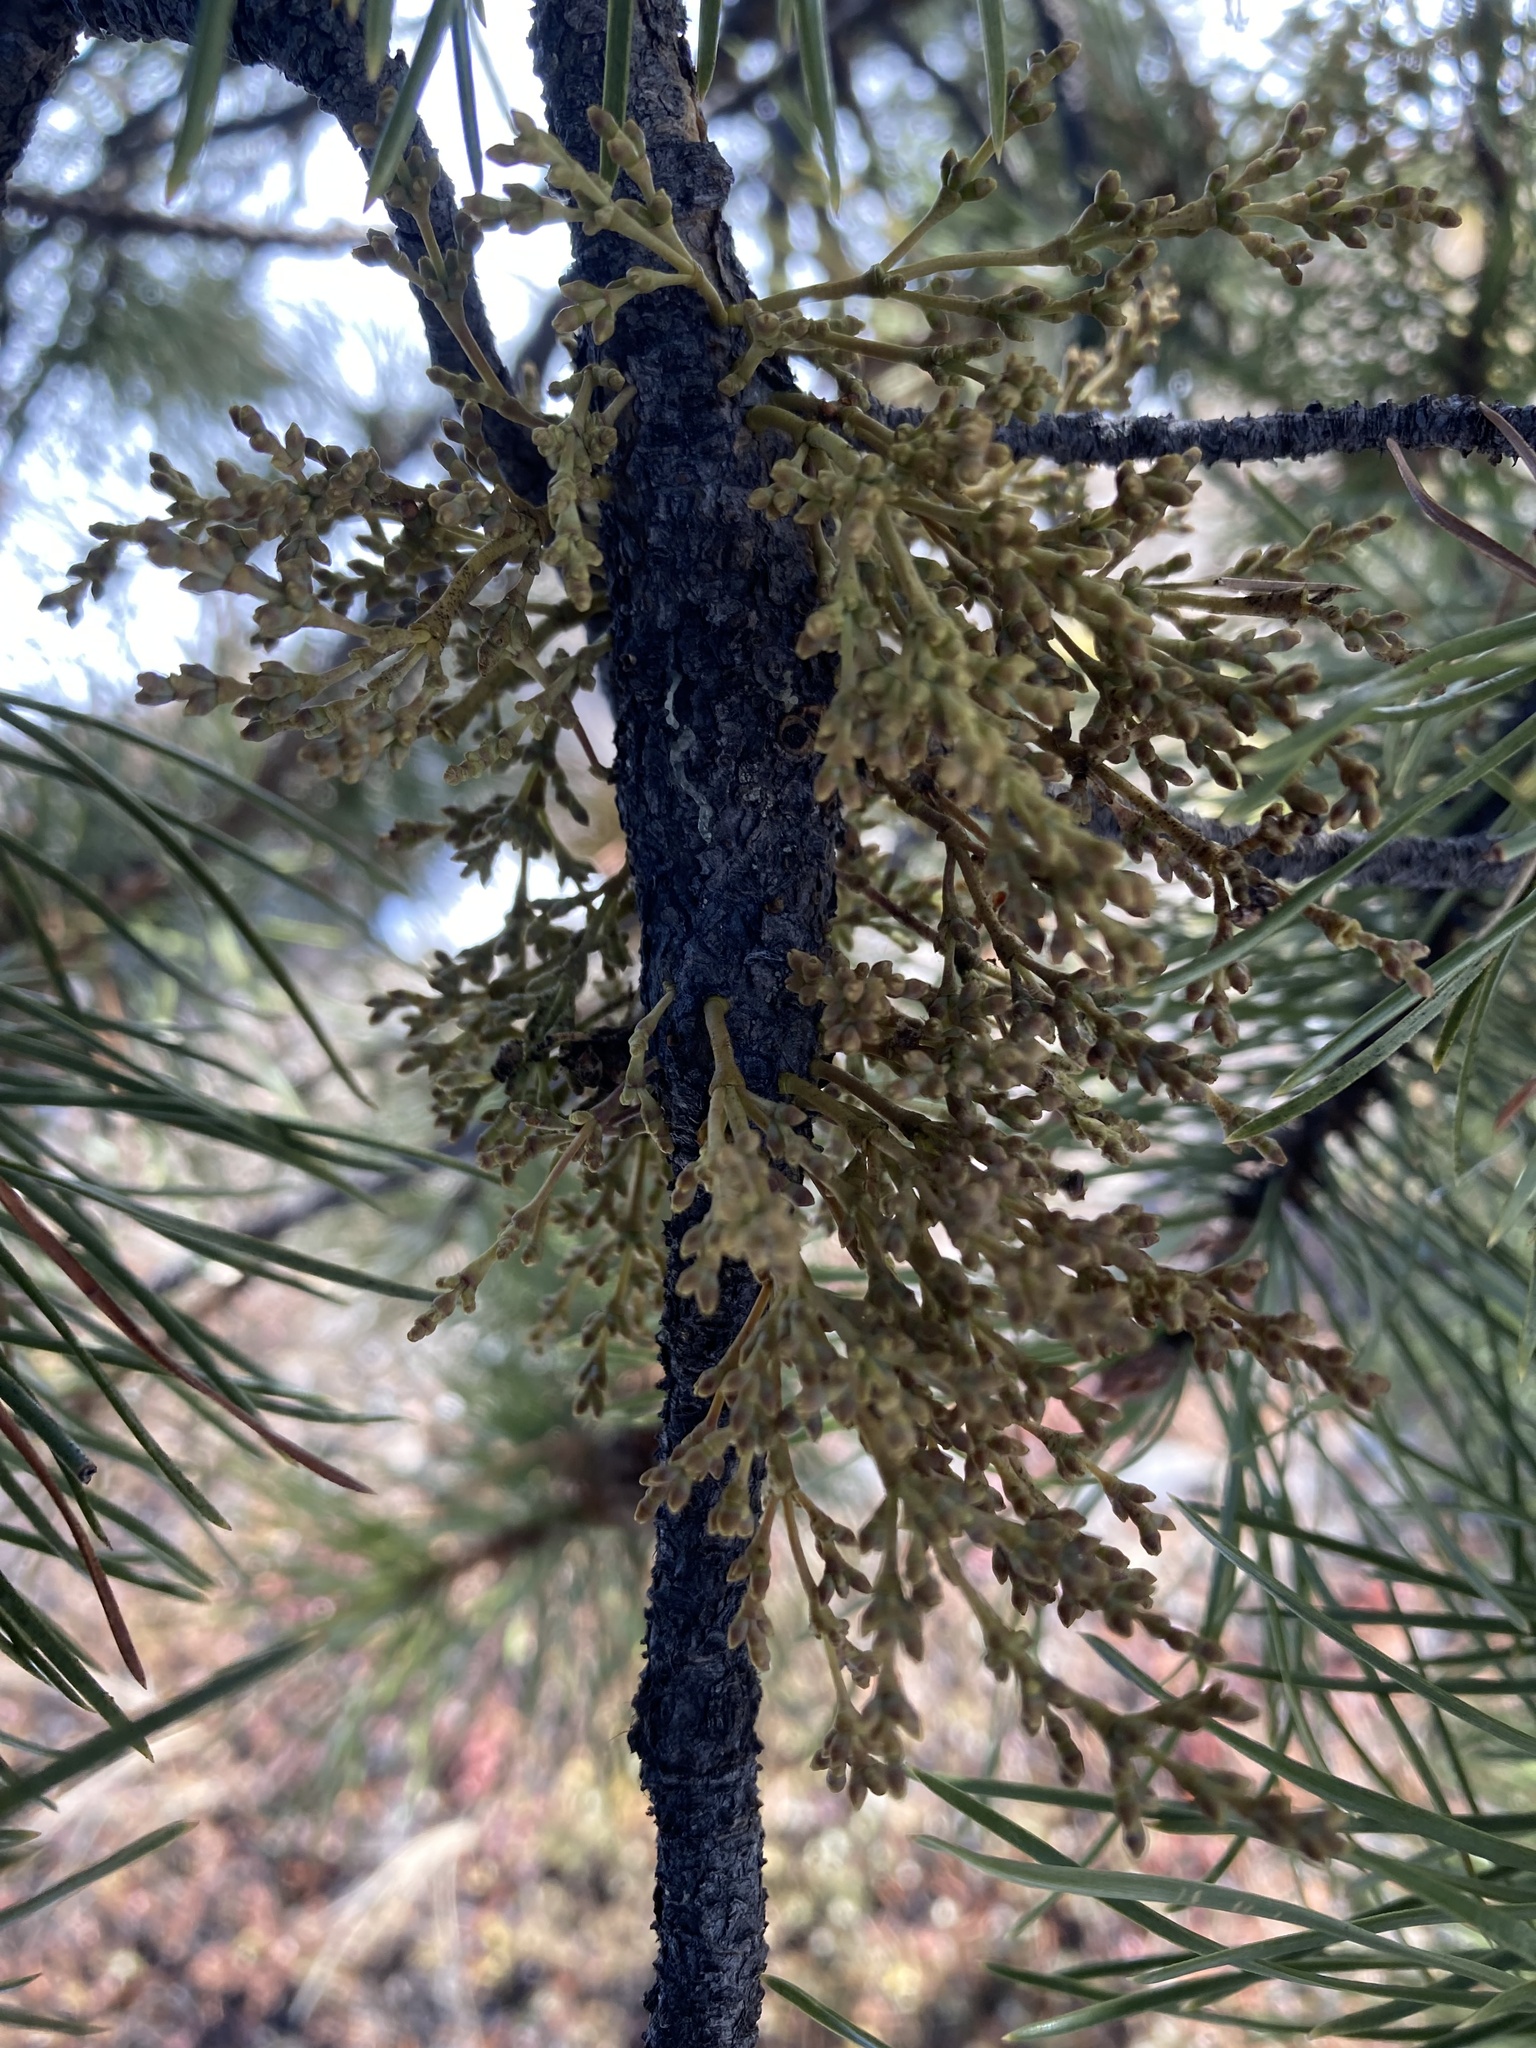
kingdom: Plantae
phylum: Tracheophyta
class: Magnoliopsida
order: Santalales
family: Viscaceae
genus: Arceuthobium
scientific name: Arceuthobium americanum
